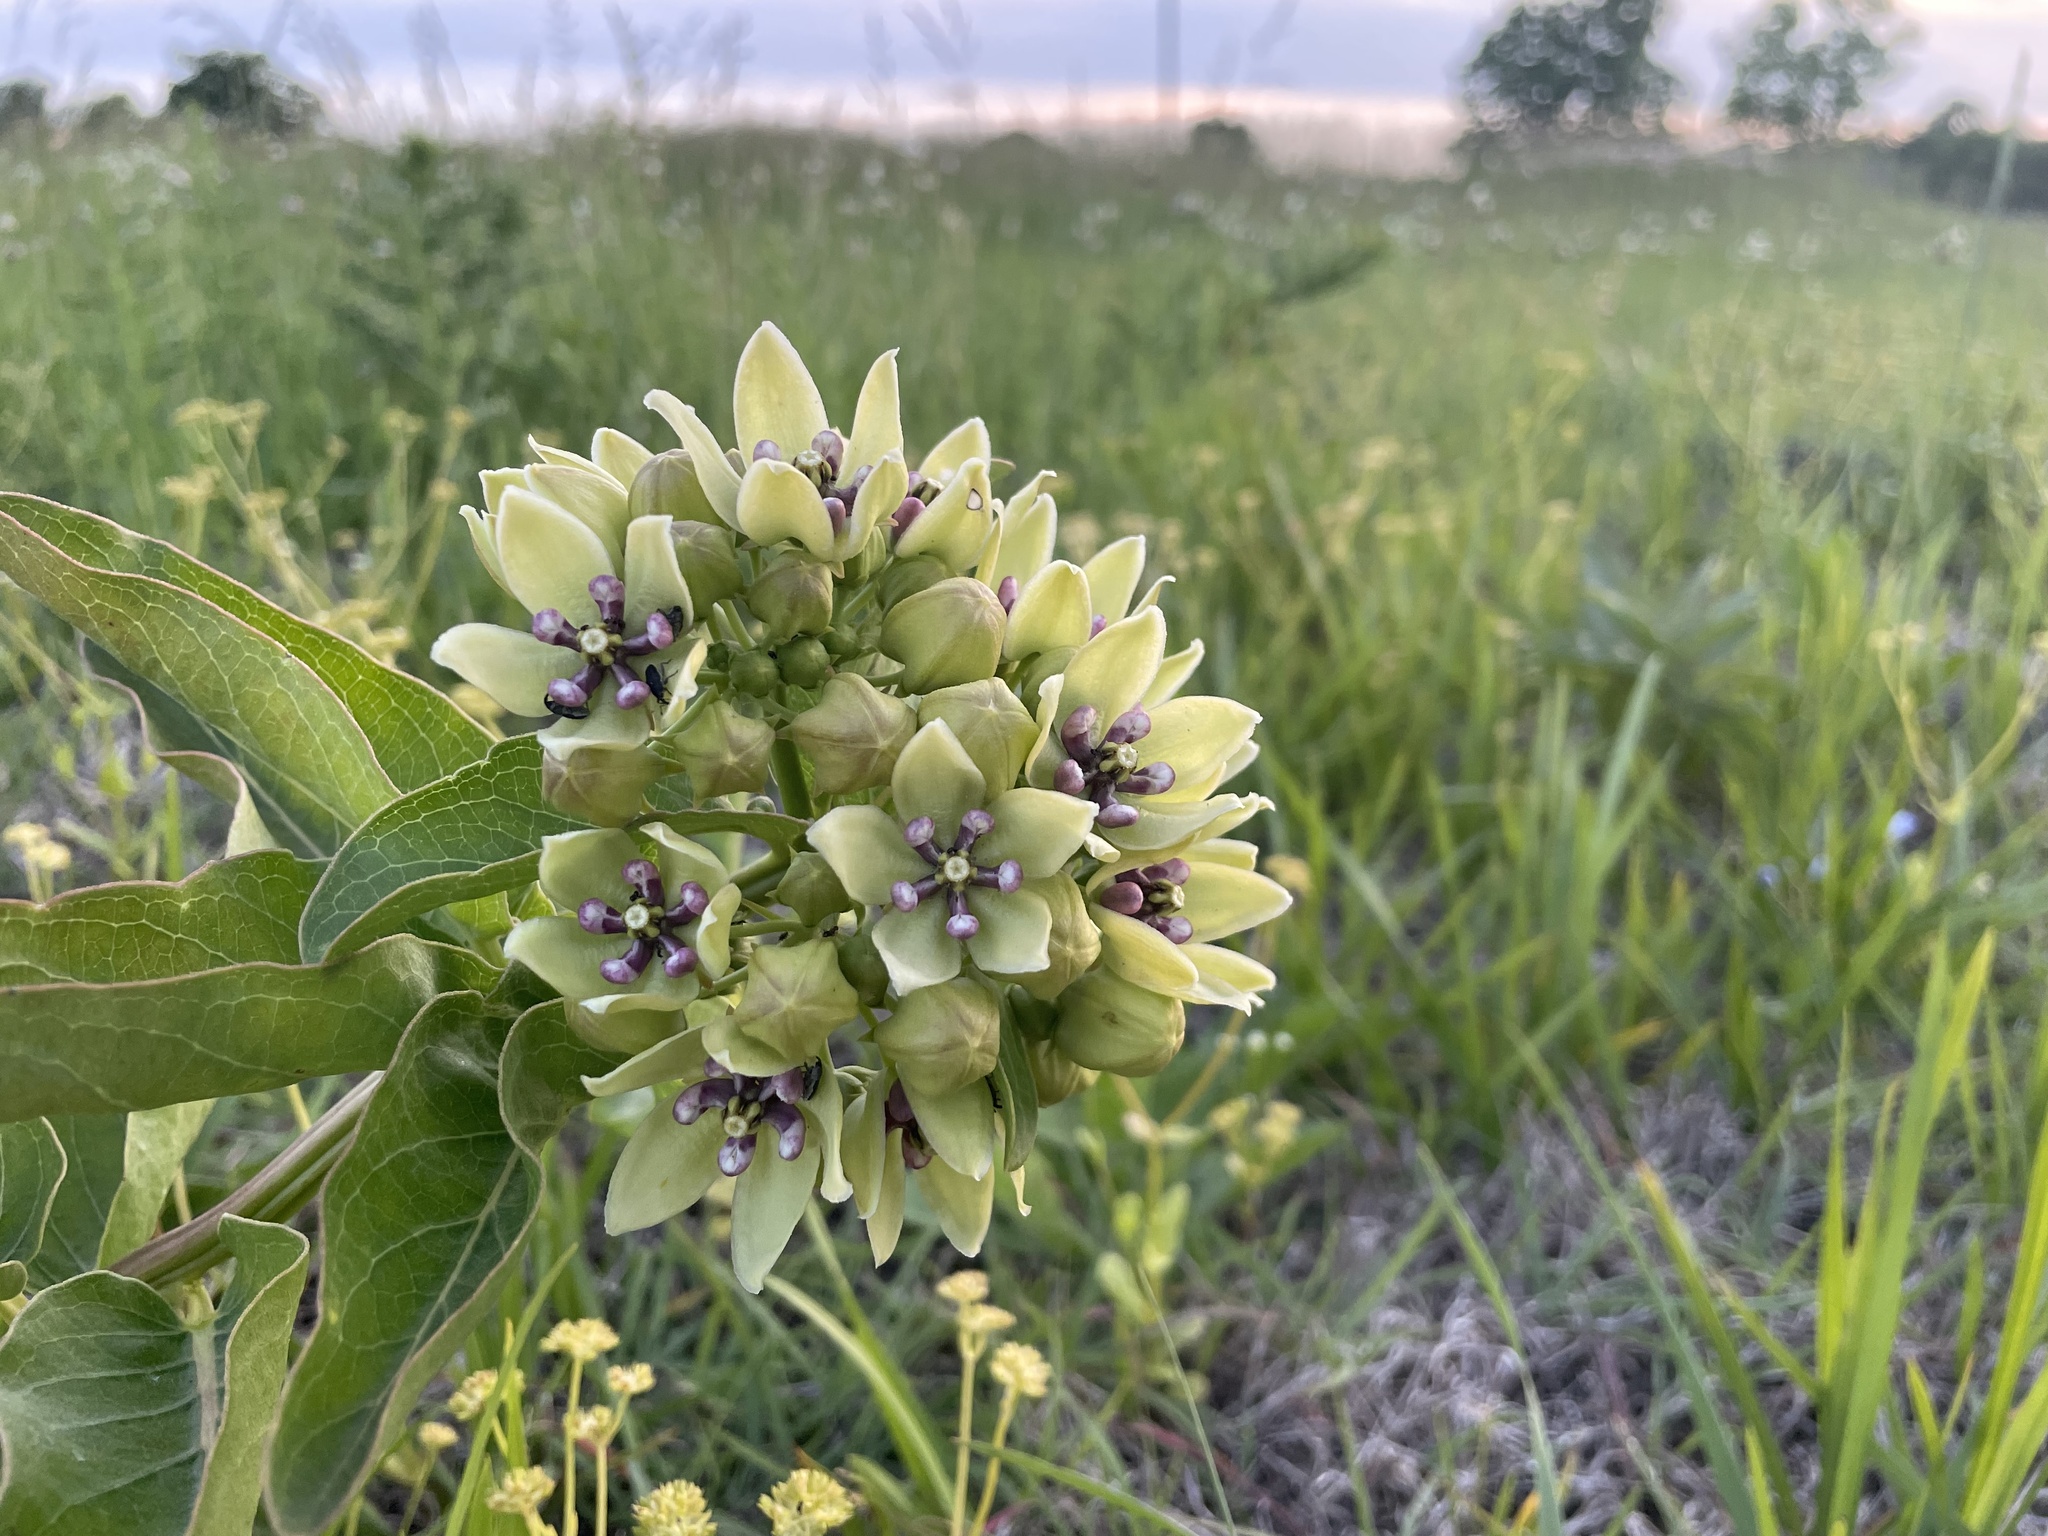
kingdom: Plantae
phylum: Tracheophyta
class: Magnoliopsida
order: Gentianales
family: Apocynaceae
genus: Asclepias
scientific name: Asclepias viridis
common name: Antelope-horns
